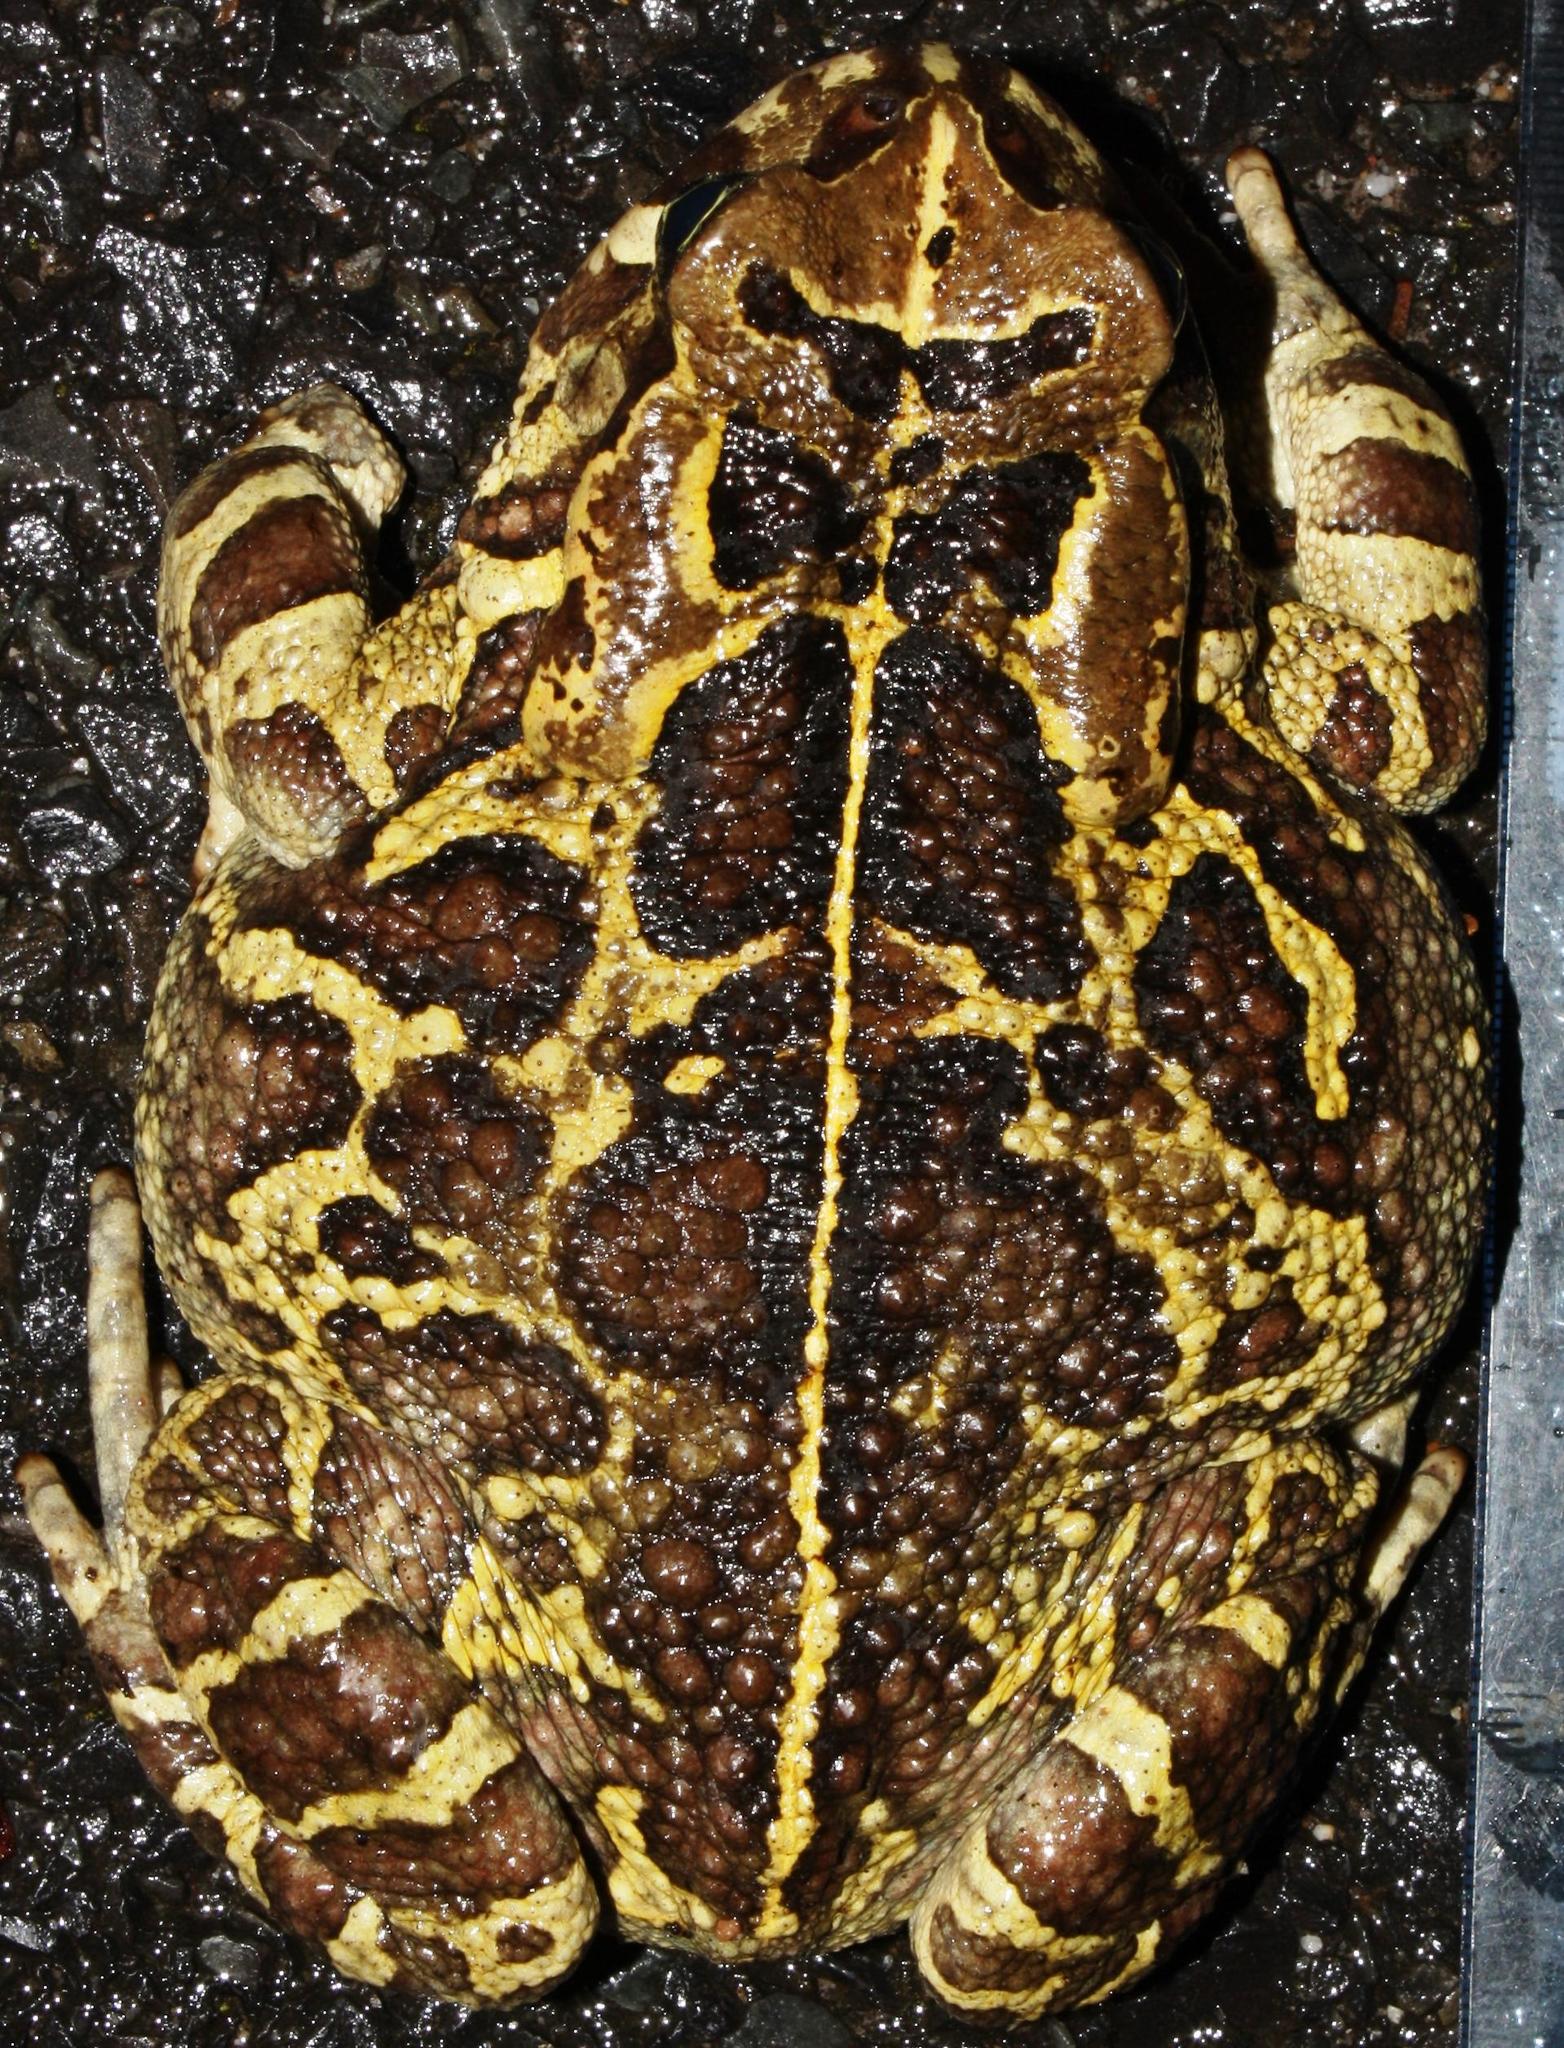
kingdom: Animalia
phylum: Chordata
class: Amphibia
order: Anura
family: Bufonidae
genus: Sclerophrys
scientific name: Sclerophrys pantherina
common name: Panther toad
